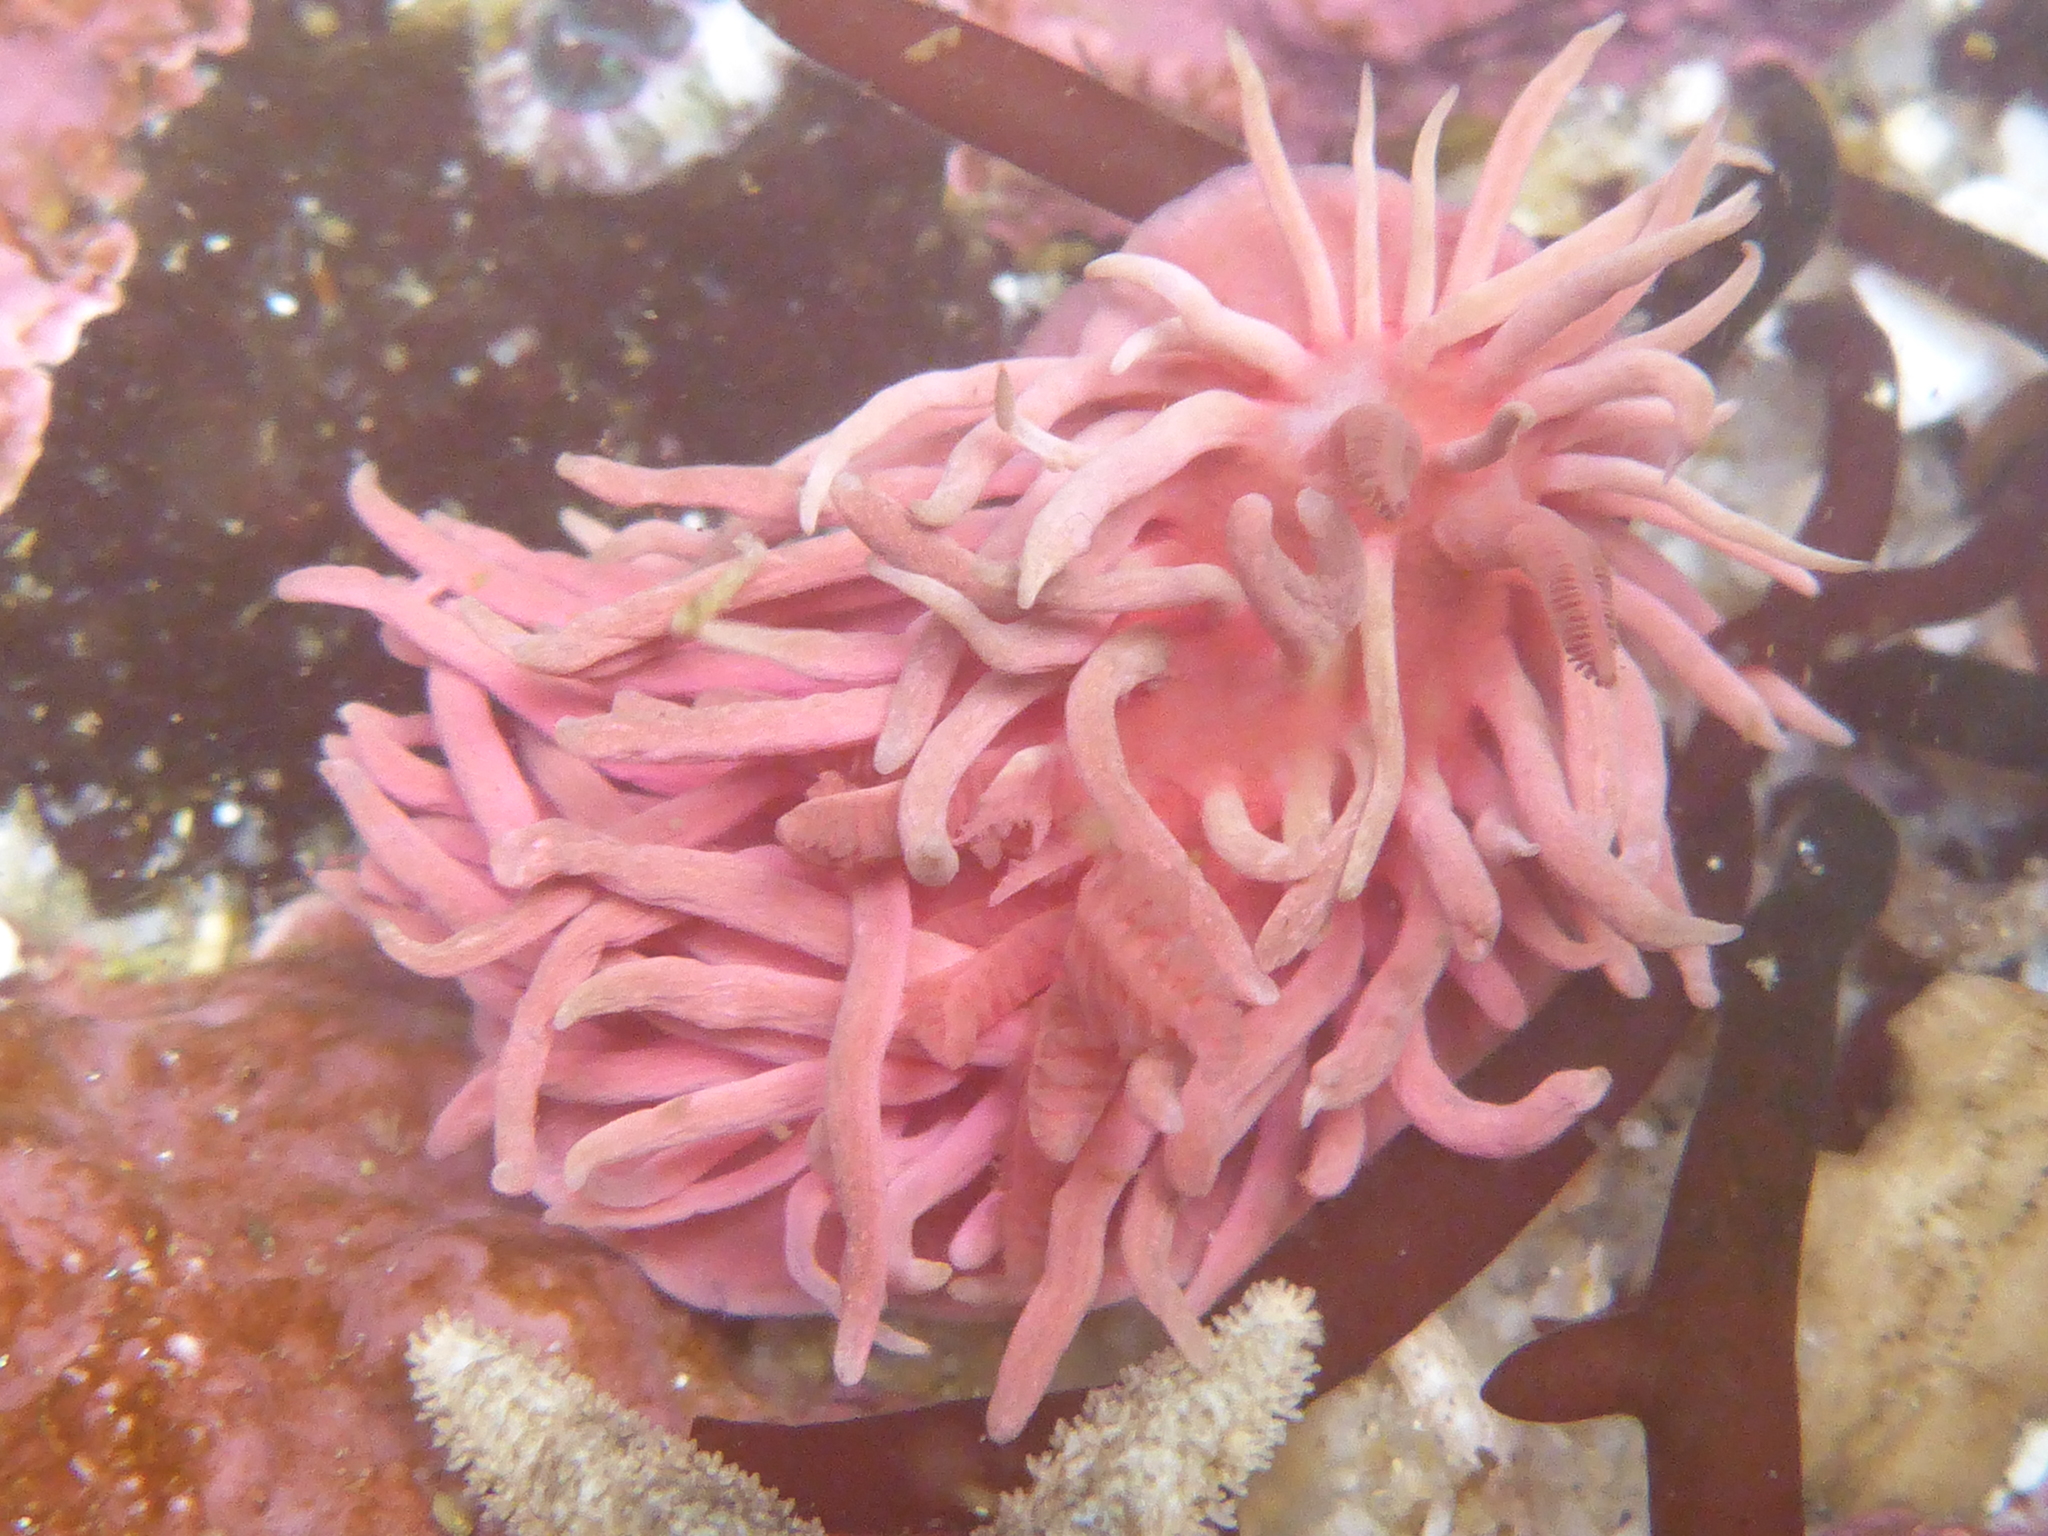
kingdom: Animalia
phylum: Mollusca
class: Gastropoda
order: Nudibranchia
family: Goniodorididae
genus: Okenia
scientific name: Okenia
